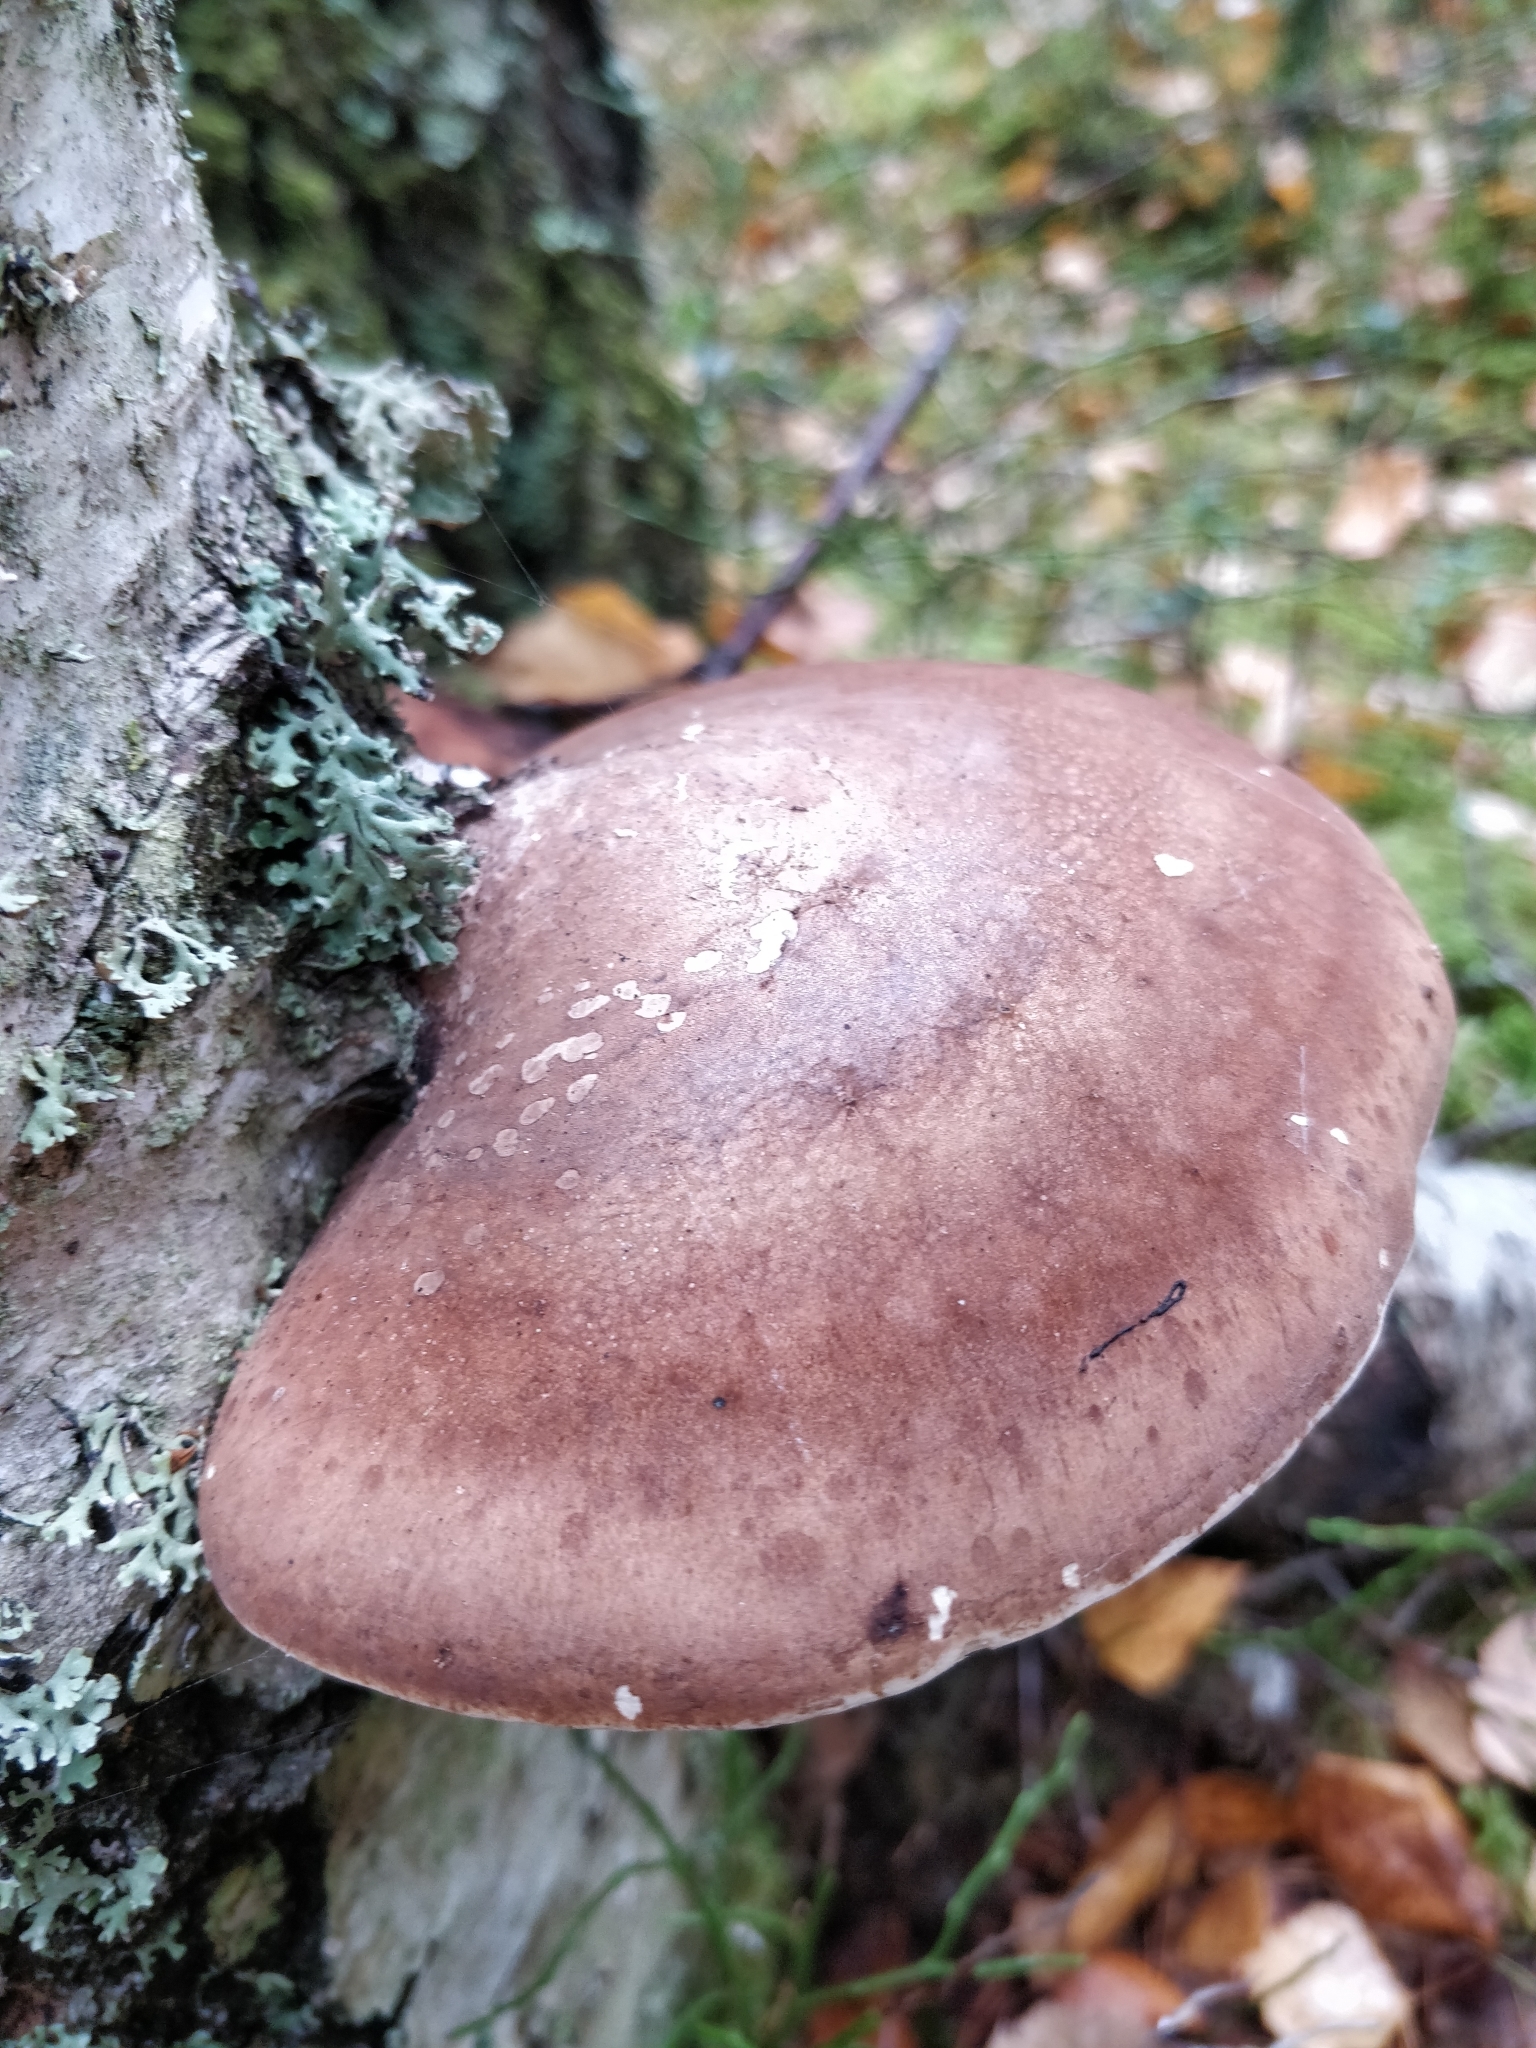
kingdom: Fungi
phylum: Basidiomycota
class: Agaricomycetes
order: Polyporales
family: Fomitopsidaceae
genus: Fomitopsis
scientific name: Fomitopsis betulina
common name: Birch polypore
